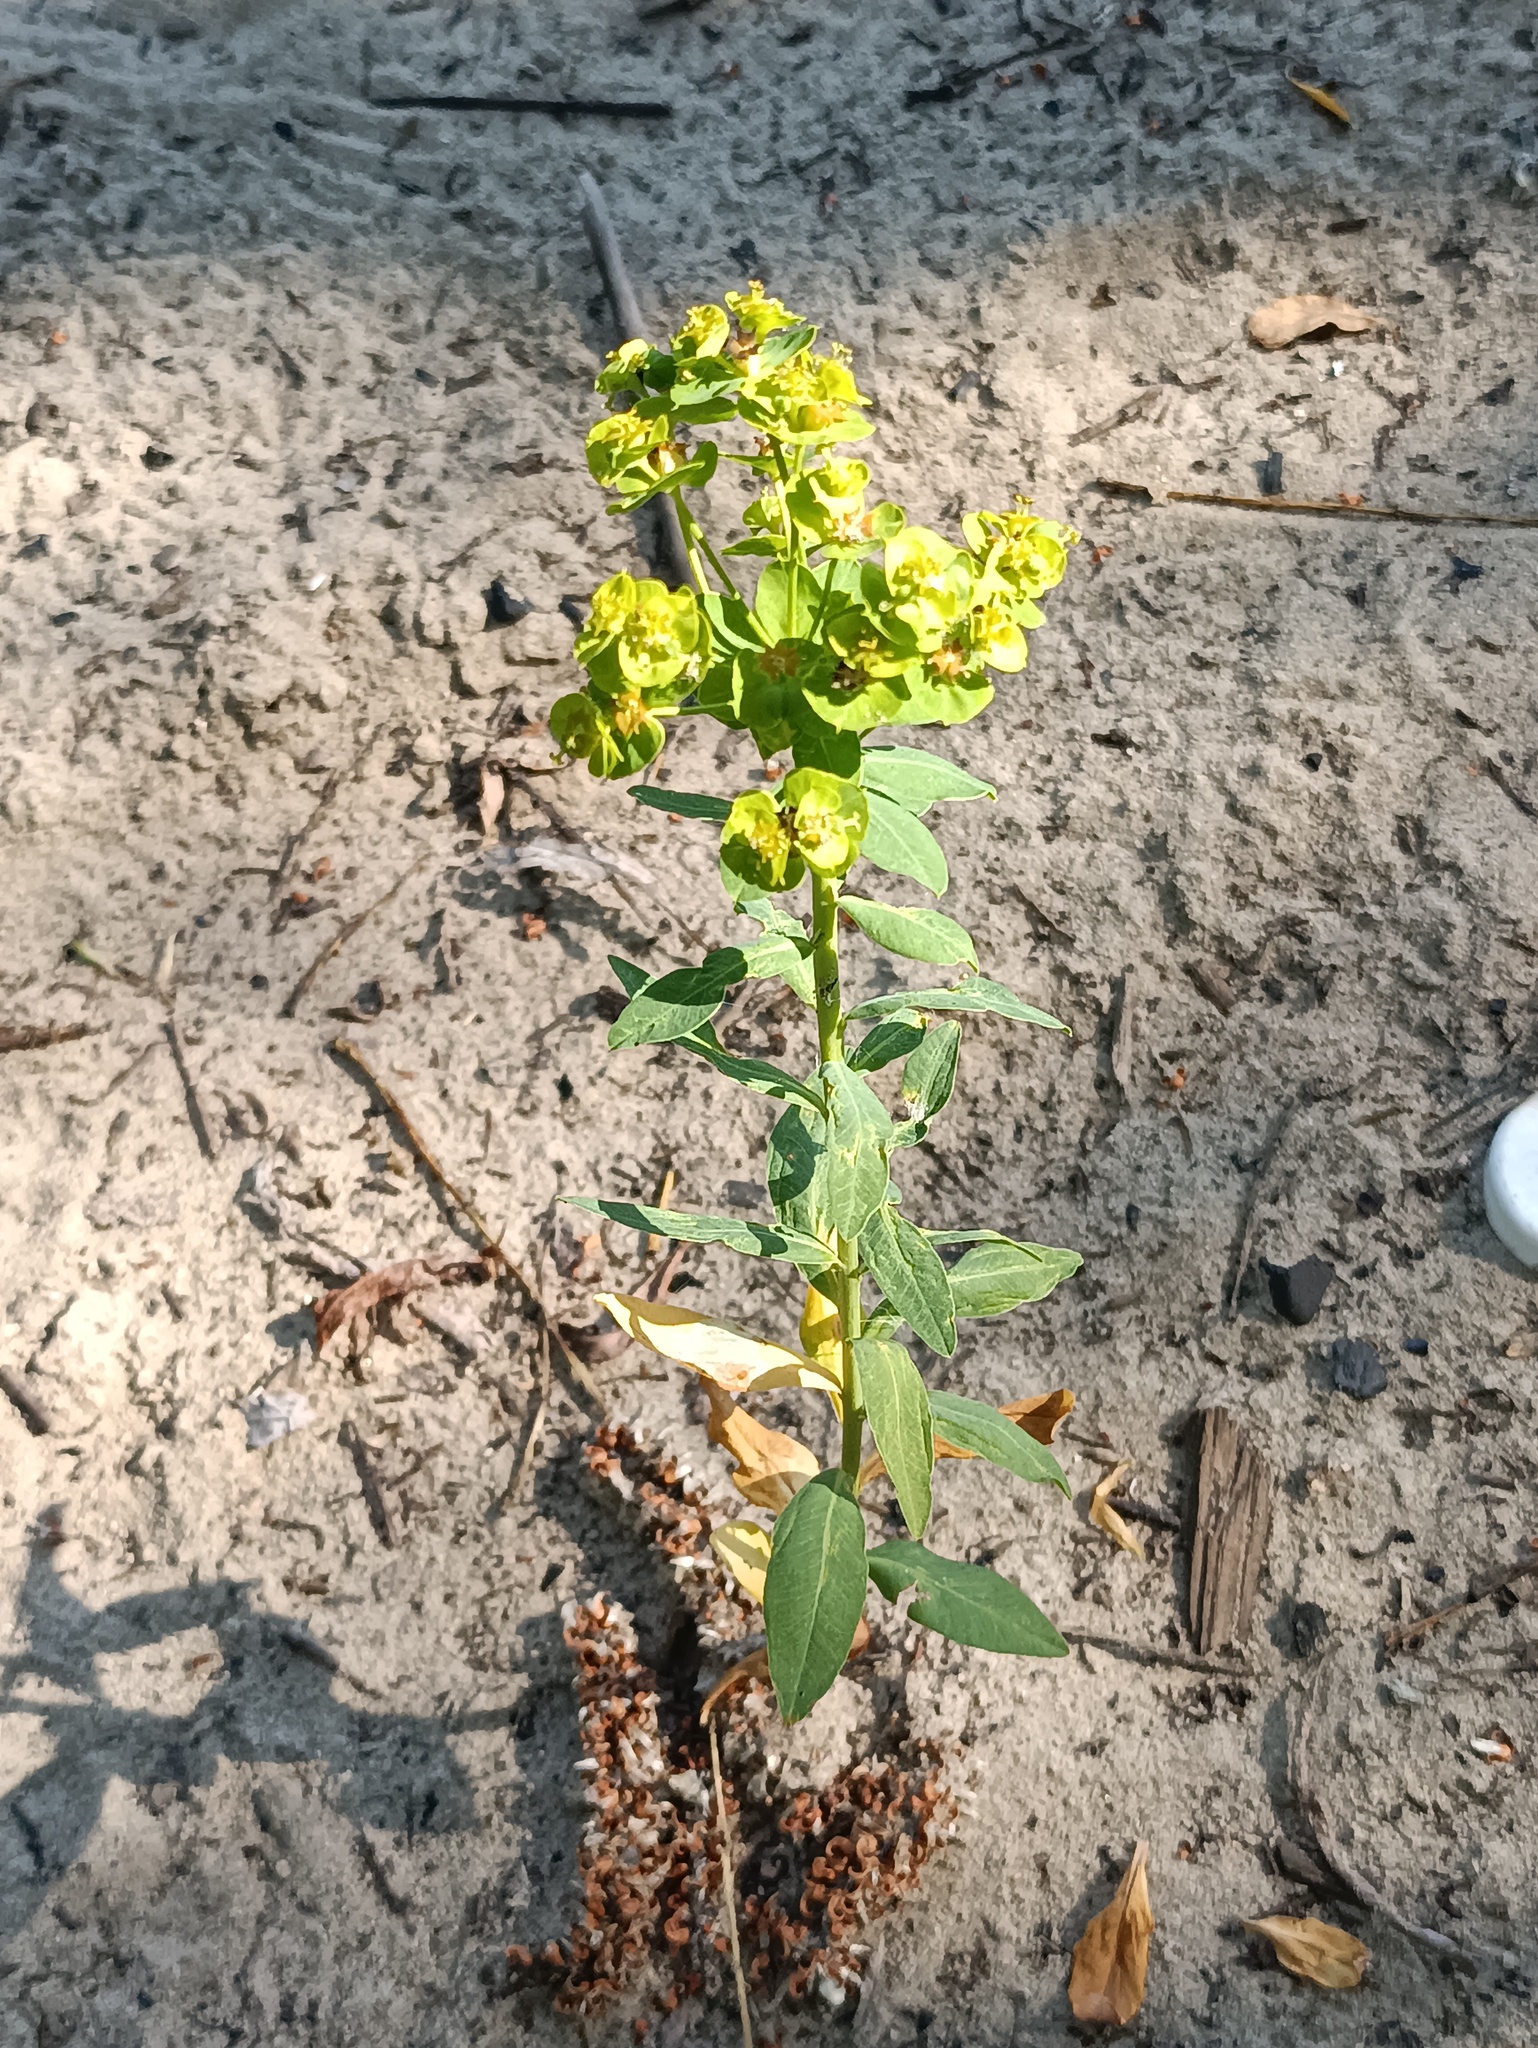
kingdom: Plantae
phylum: Tracheophyta
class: Magnoliopsida
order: Malpighiales
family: Euphorbiaceae
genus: Euphorbia
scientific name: Euphorbia virgata
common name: Leafy spurge
